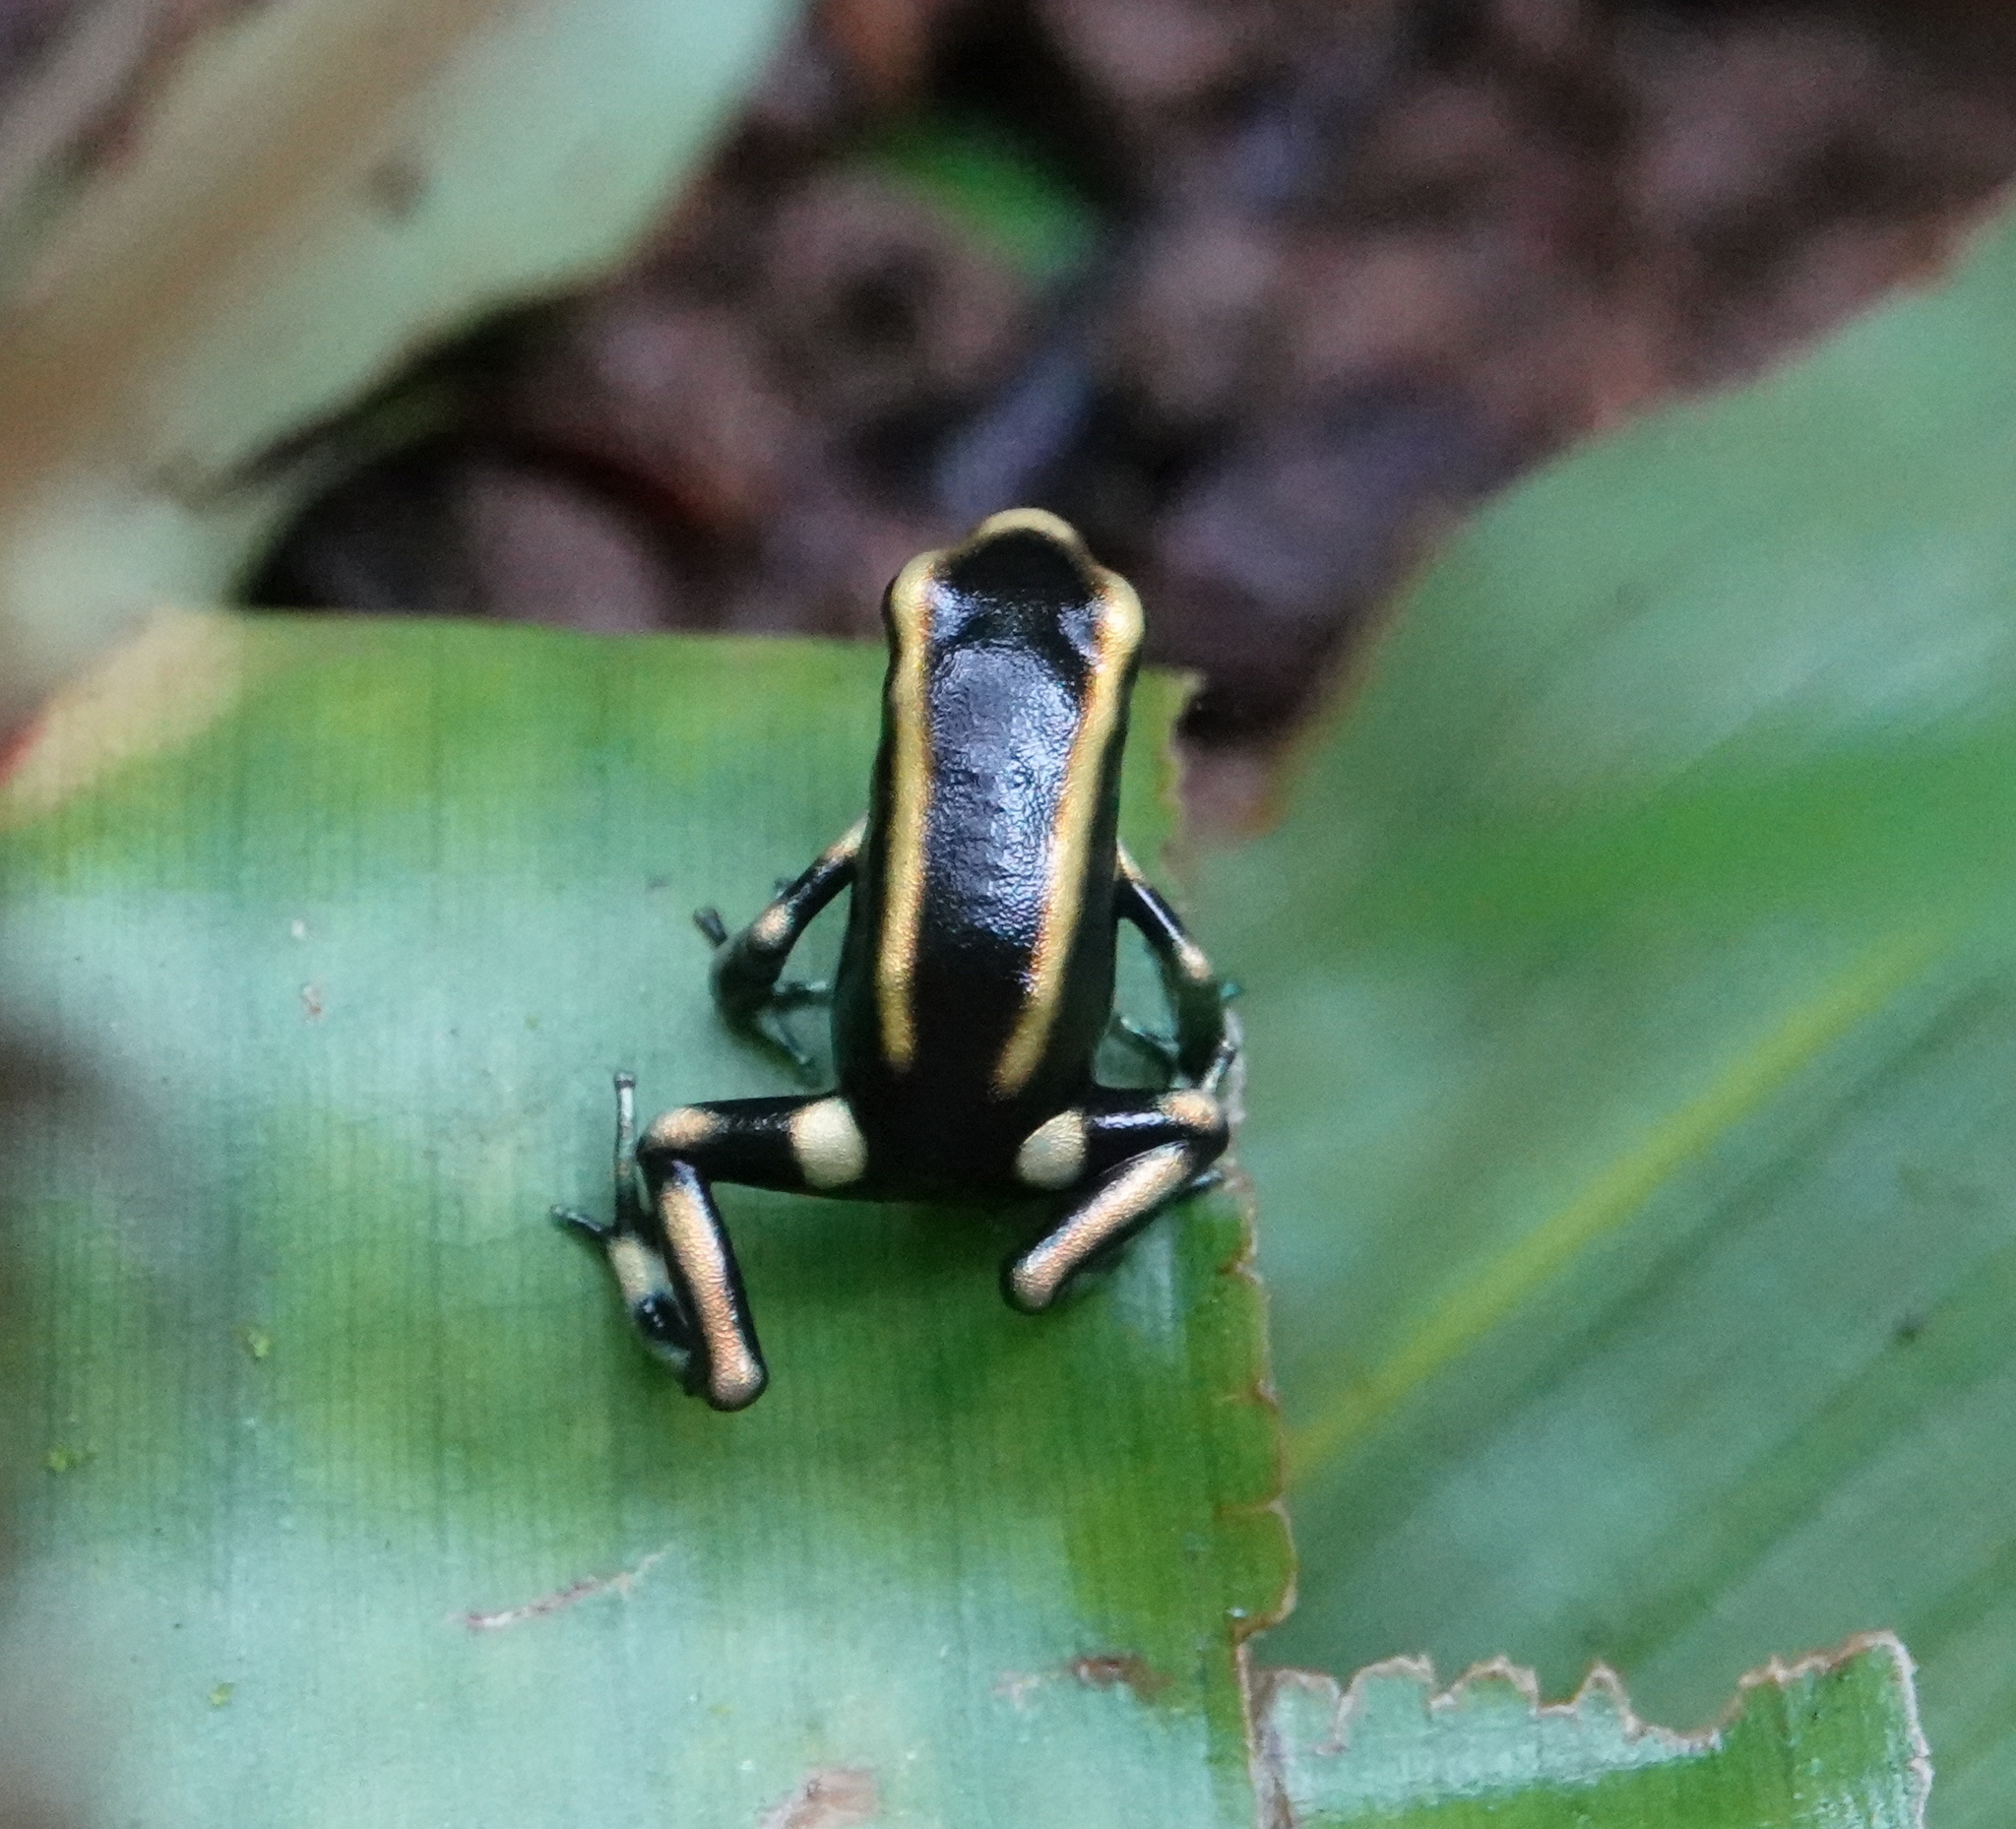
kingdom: Animalia
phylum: Chordata
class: Amphibia
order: Anura
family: Dendrobatidae
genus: Dendrobates
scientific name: Dendrobates truncatus
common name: Yellow-striped poison frog
